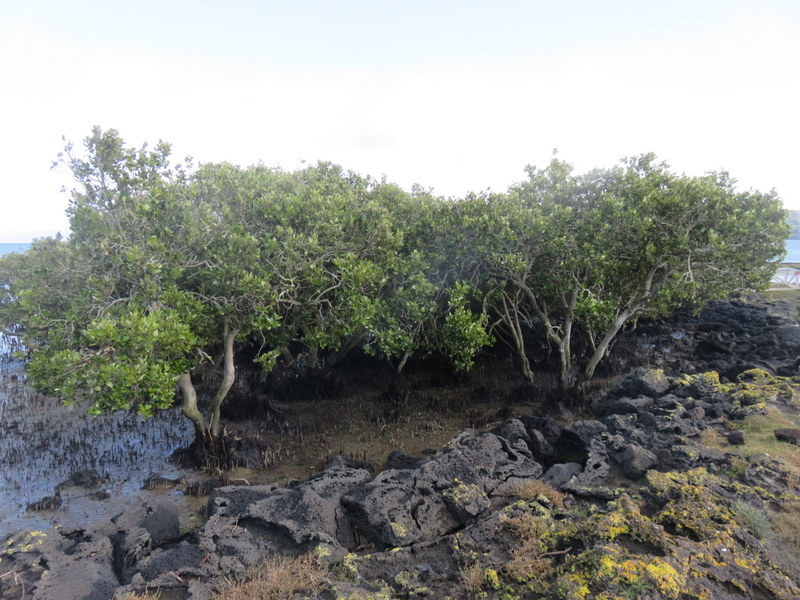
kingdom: Plantae
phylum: Tracheophyta
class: Magnoliopsida
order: Lamiales
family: Acanthaceae
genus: Avicennia
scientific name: Avicennia marina
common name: Gray mangrove
